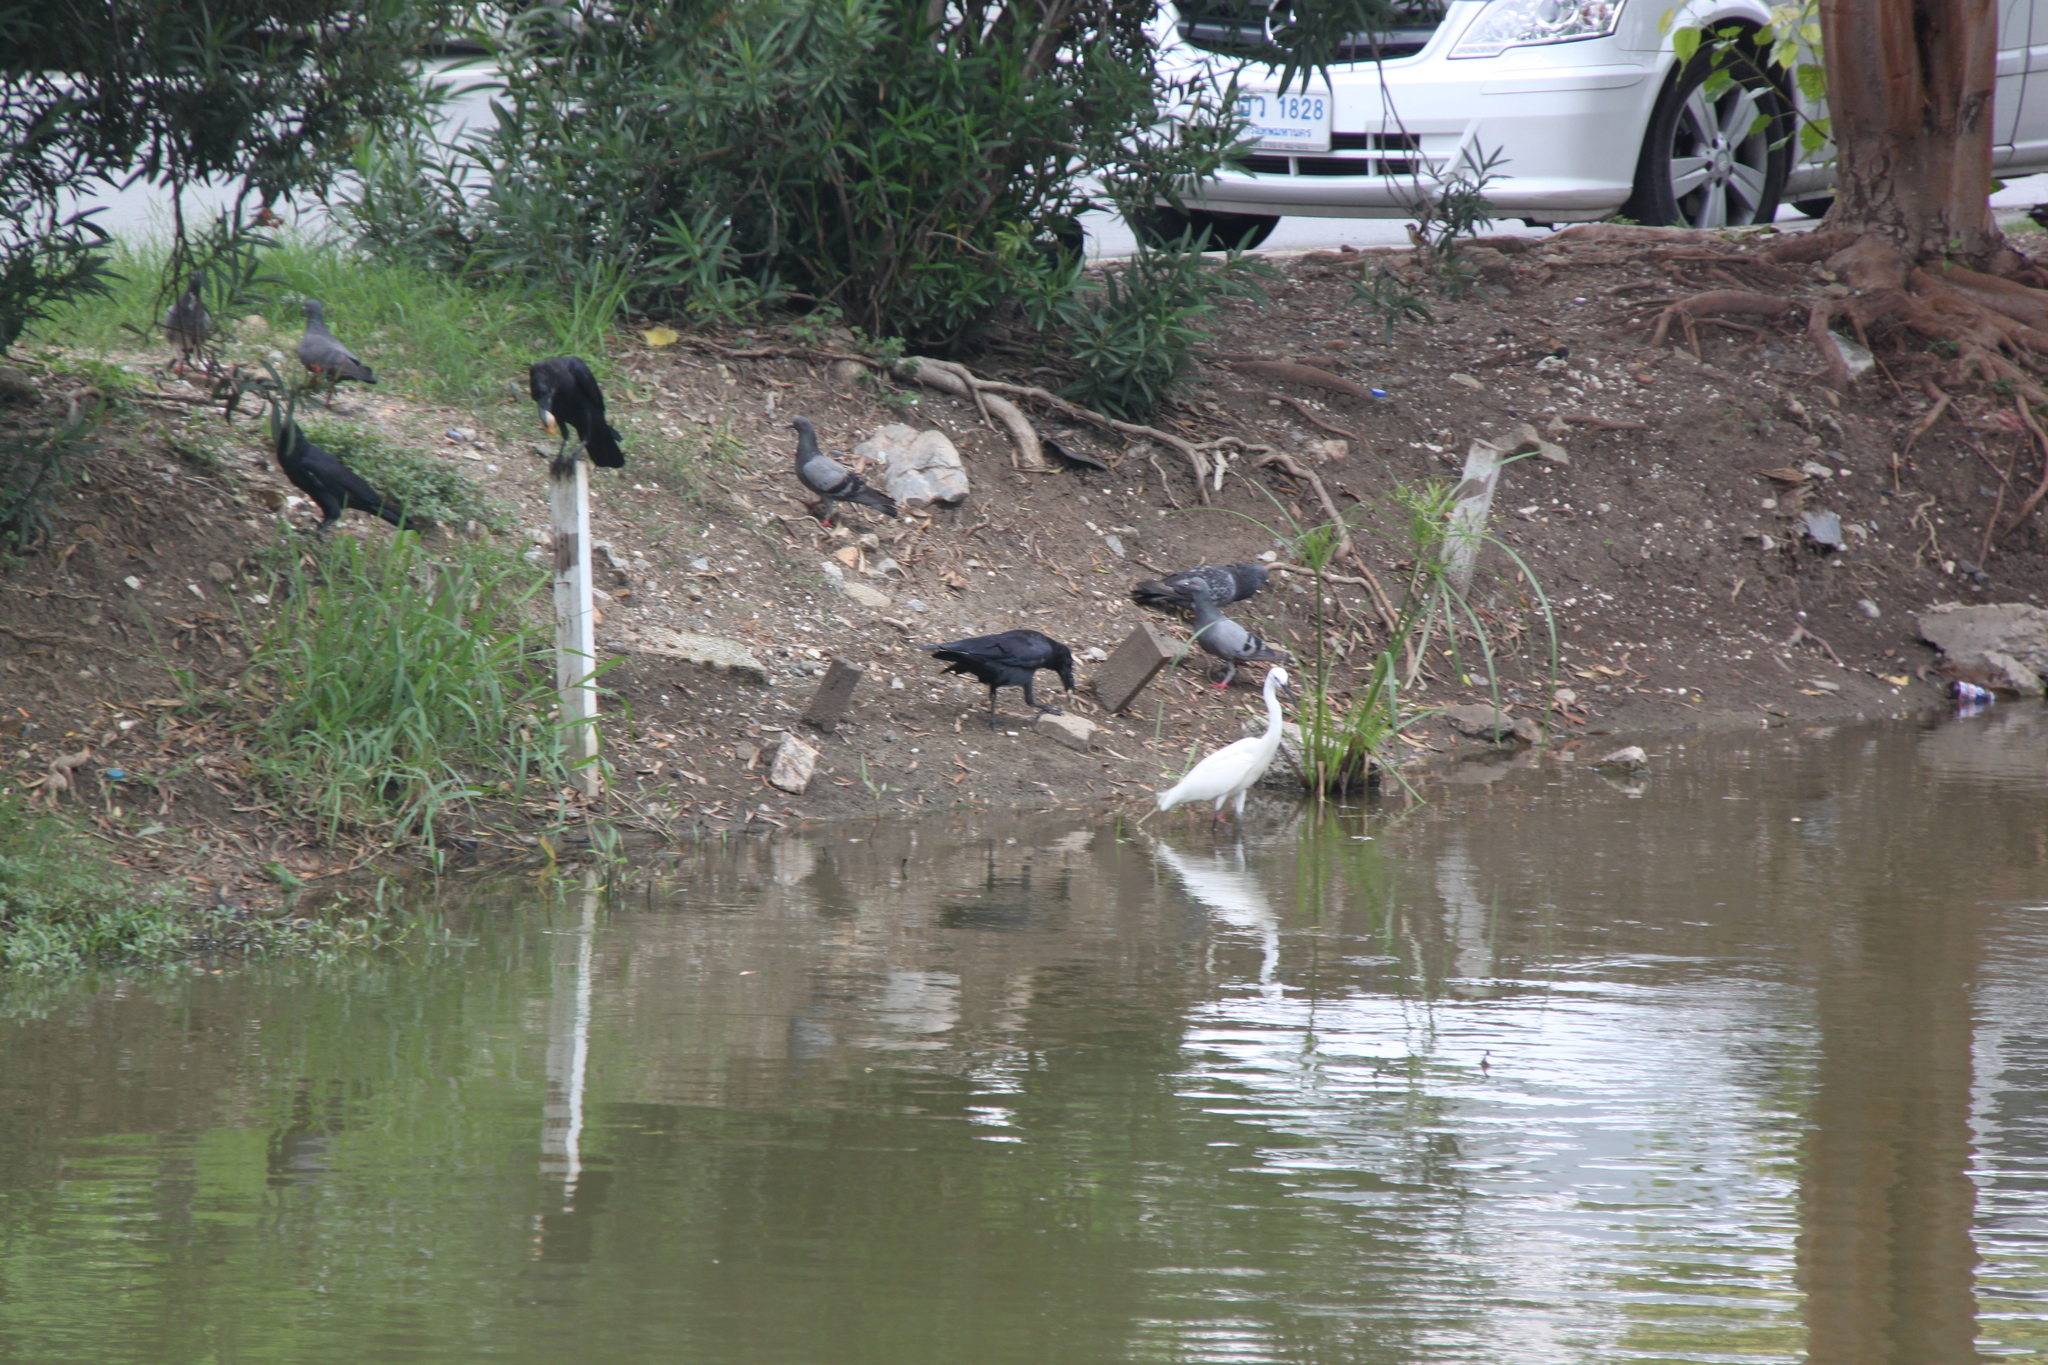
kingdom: Animalia
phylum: Chordata
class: Aves
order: Pelecaniformes
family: Ardeidae
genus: Egretta
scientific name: Egretta garzetta
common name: Little egret
